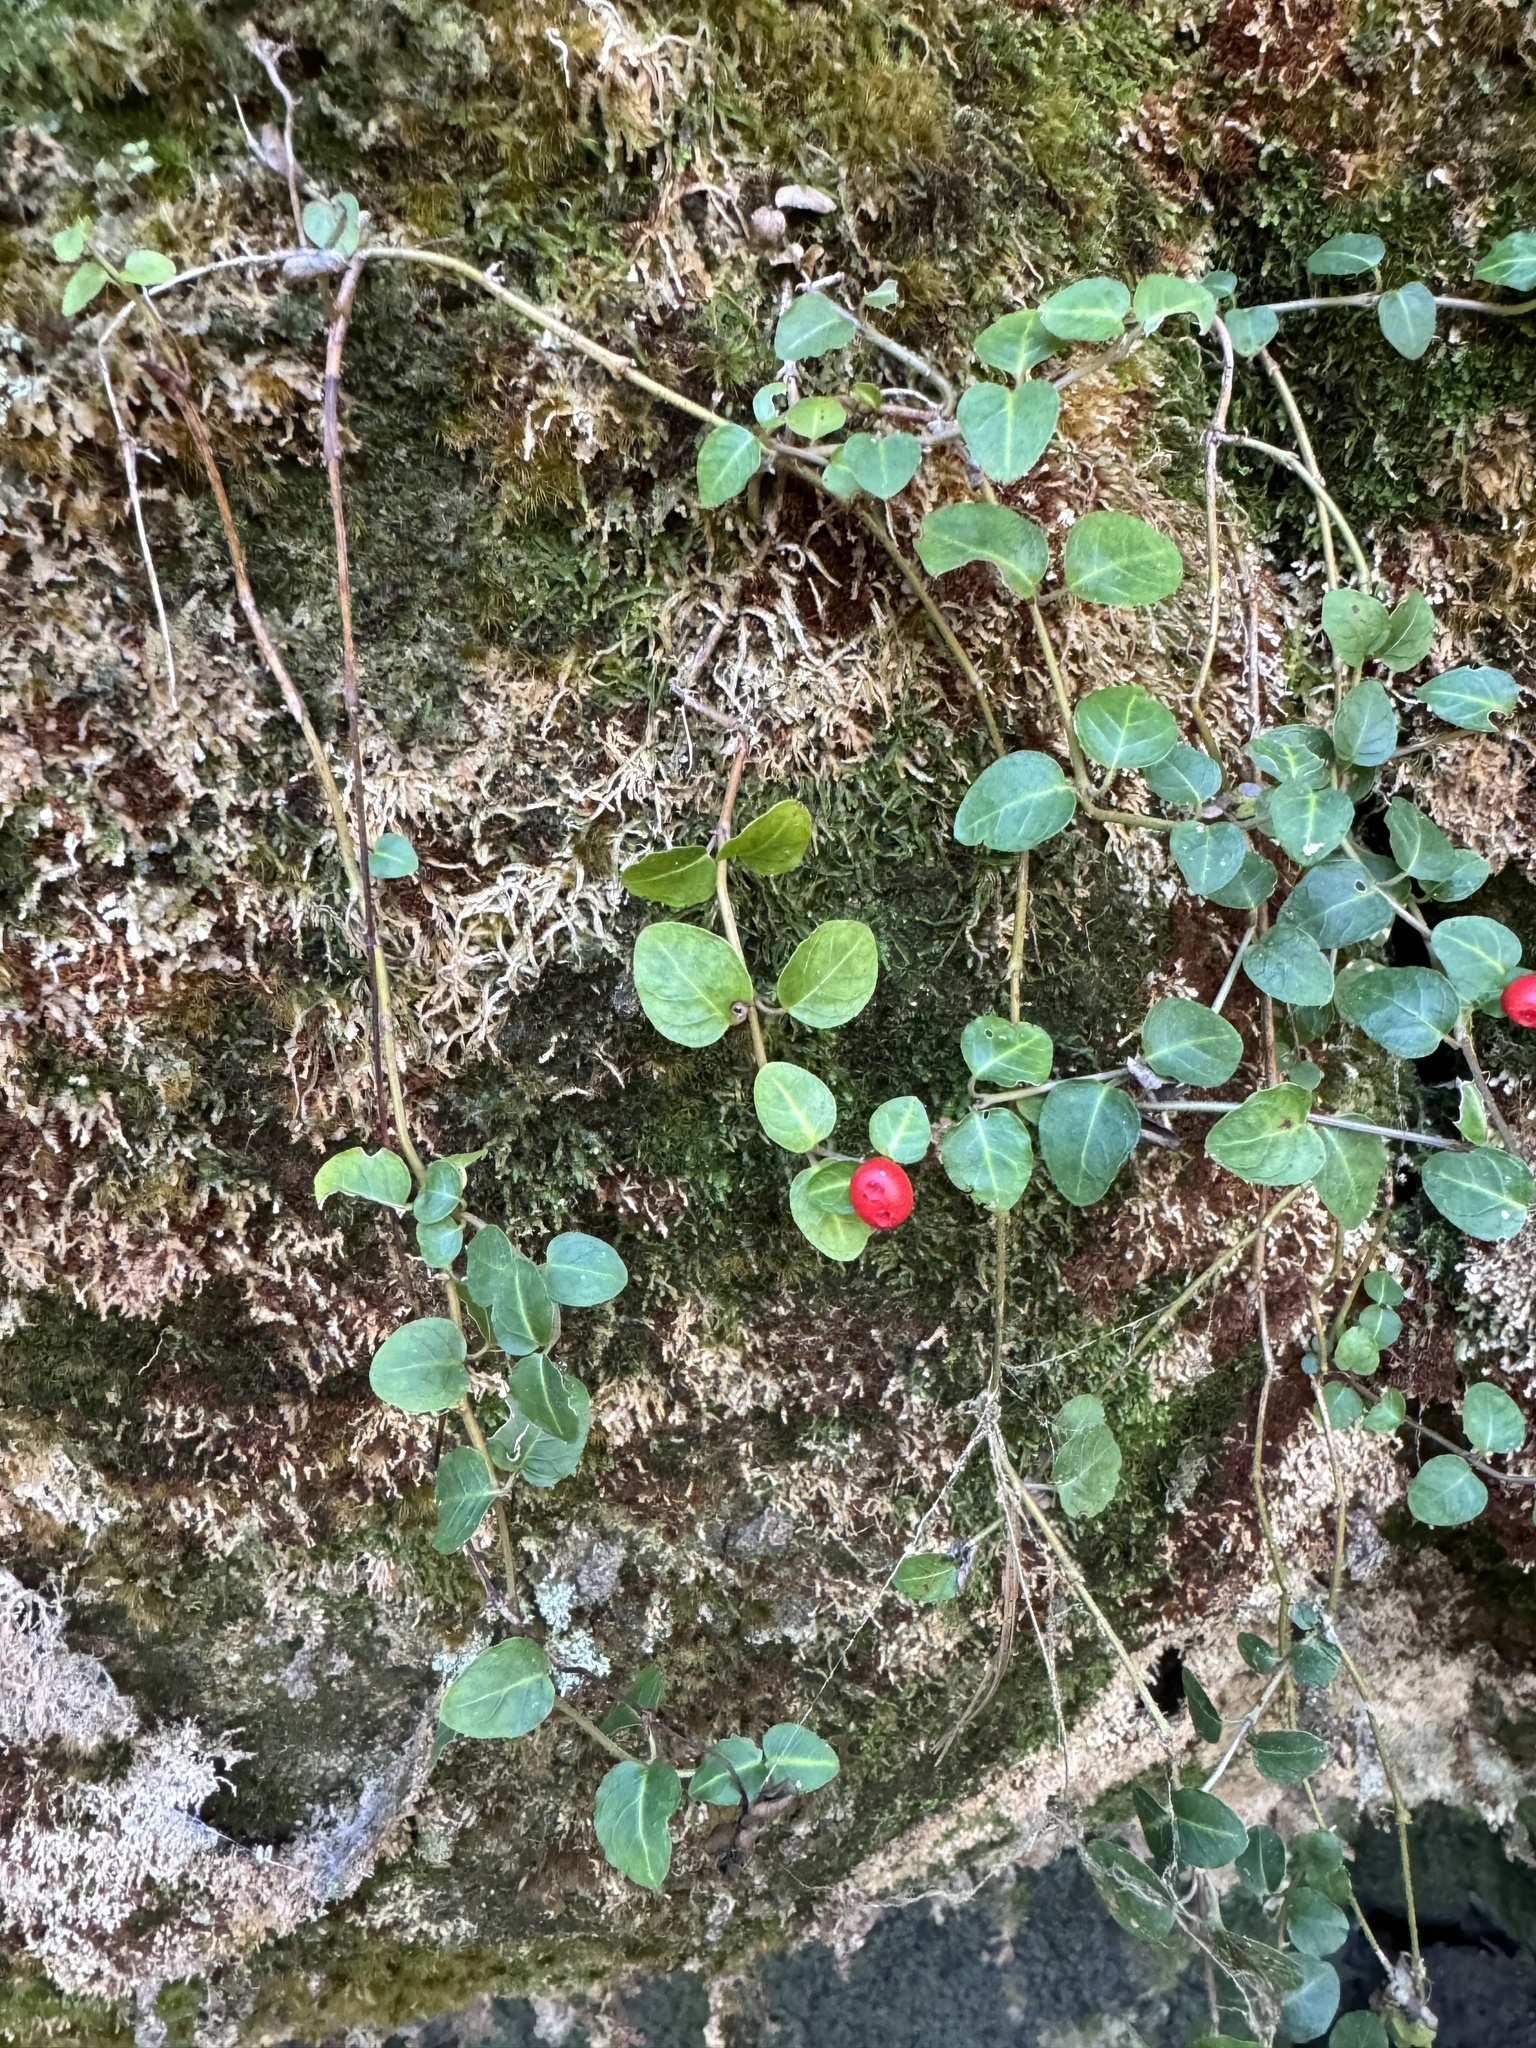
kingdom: Plantae
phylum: Tracheophyta
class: Magnoliopsida
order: Gentianales
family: Rubiaceae
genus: Mitchella
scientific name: Mitchella repens
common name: Partridge-berry
